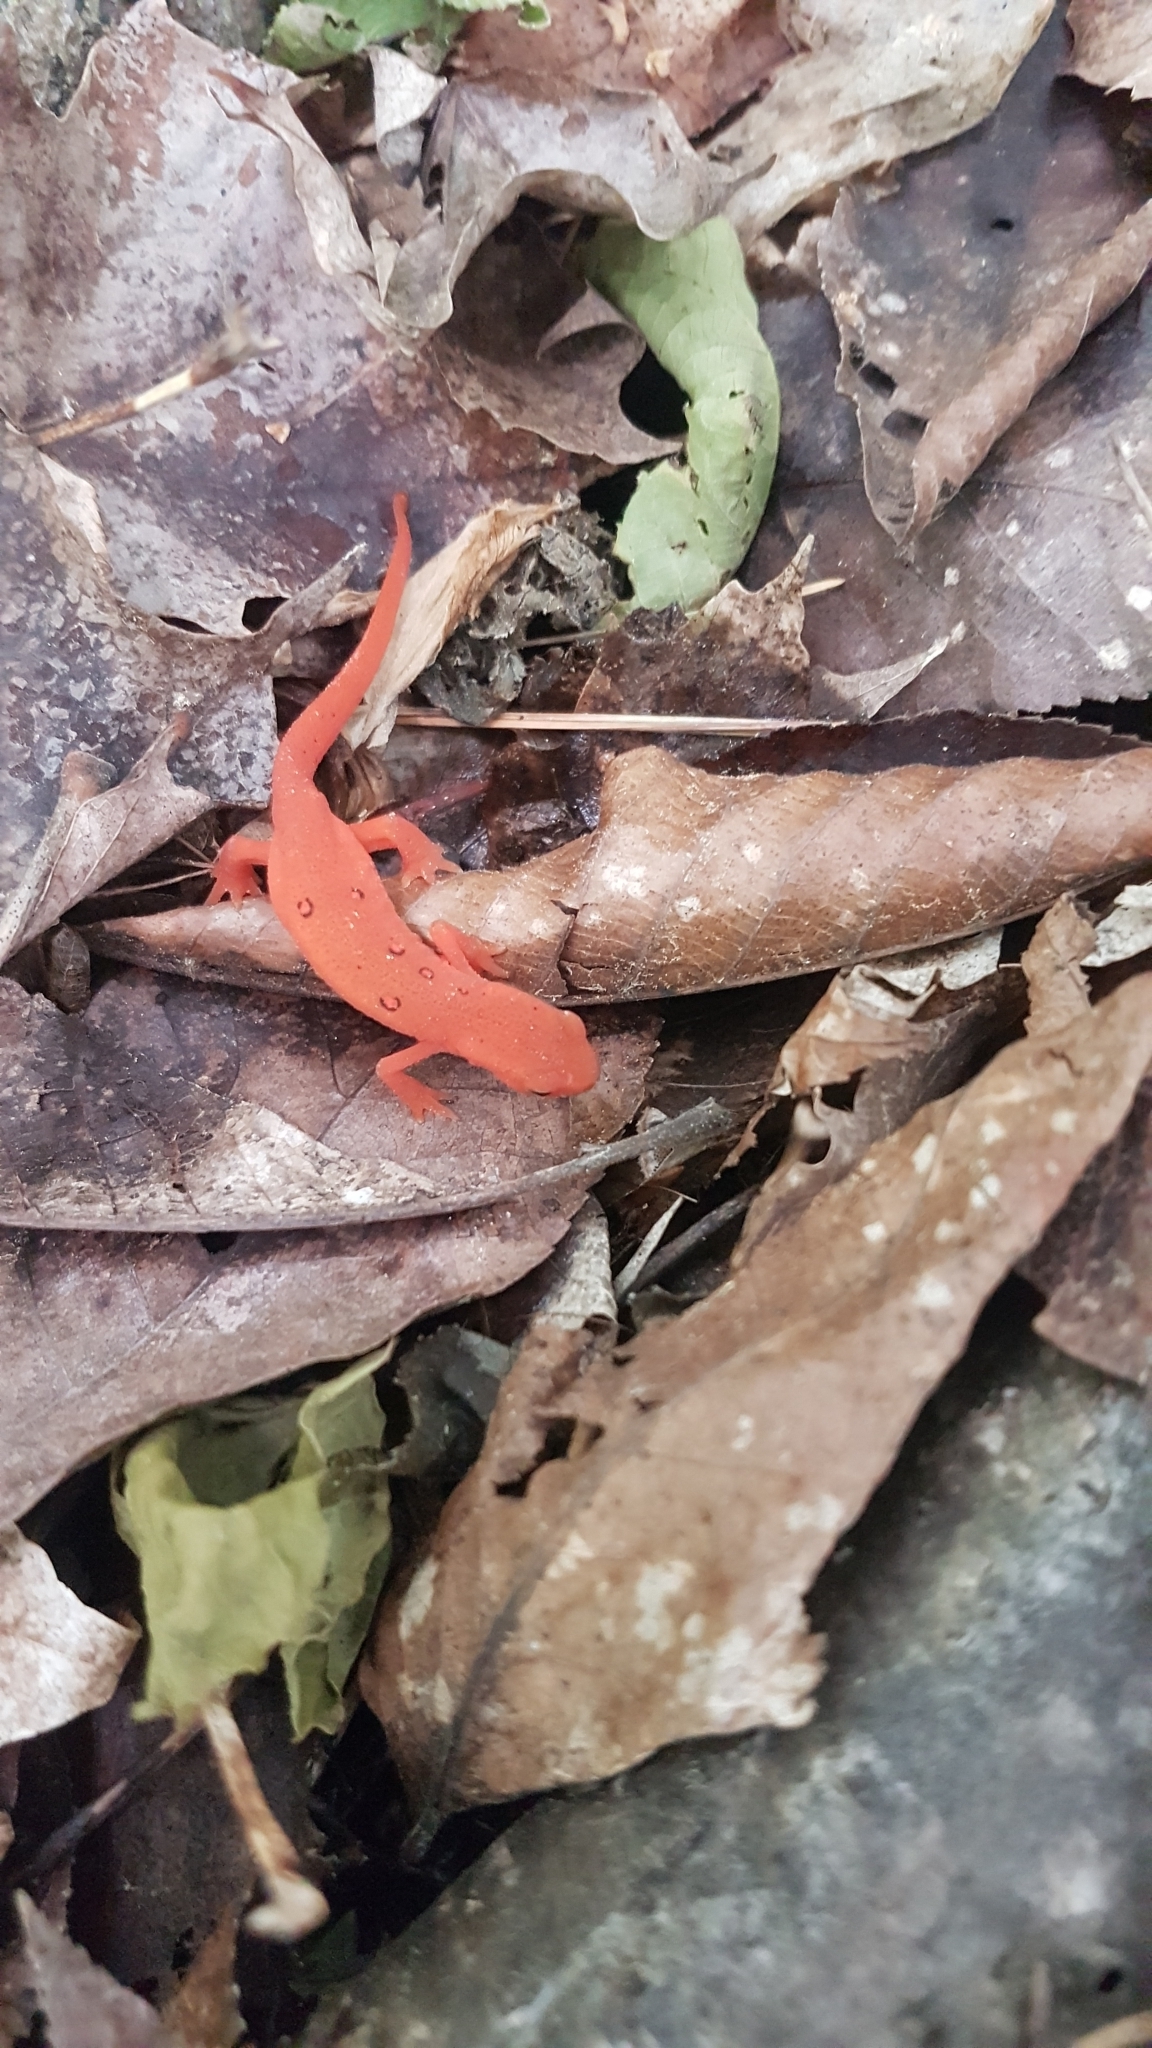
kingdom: Animalia
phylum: Chordata
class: Amphibia
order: Caudata
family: Salamandridae
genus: Notophthalmus
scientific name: Notophthalmus viridescens
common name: Eastern newt
